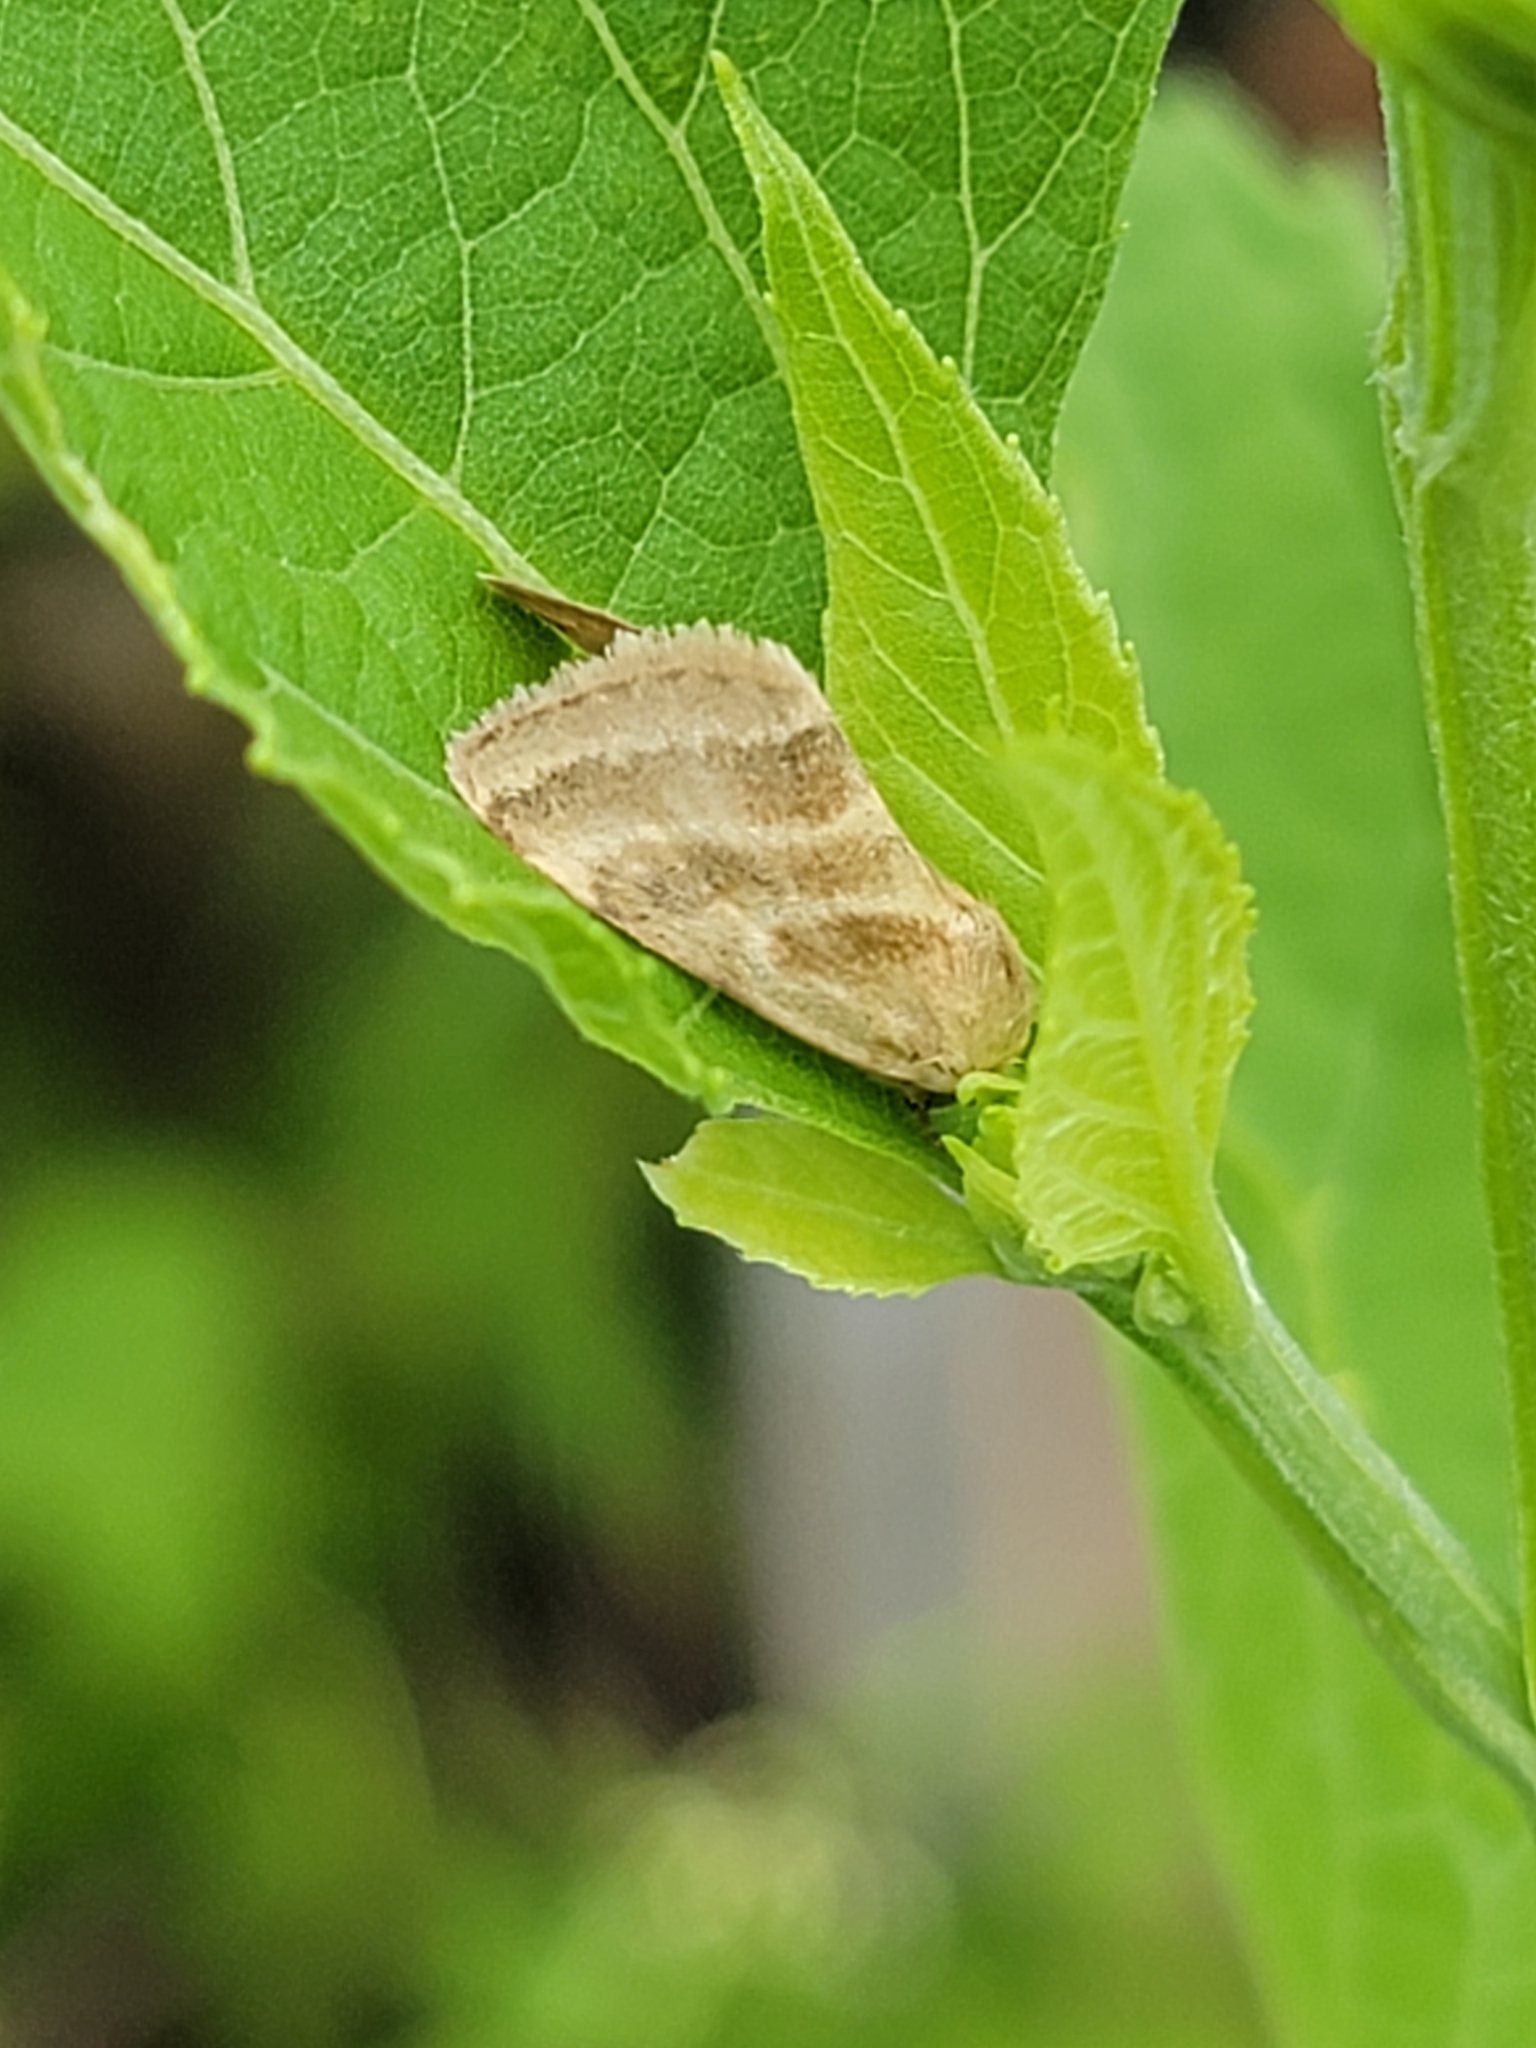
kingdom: Animalia
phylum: Arthropoda
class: Insecta
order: Lepidoptera
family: Noctuidae
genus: Schinia
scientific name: Schinia trifascia
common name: Three-lined flower moth
